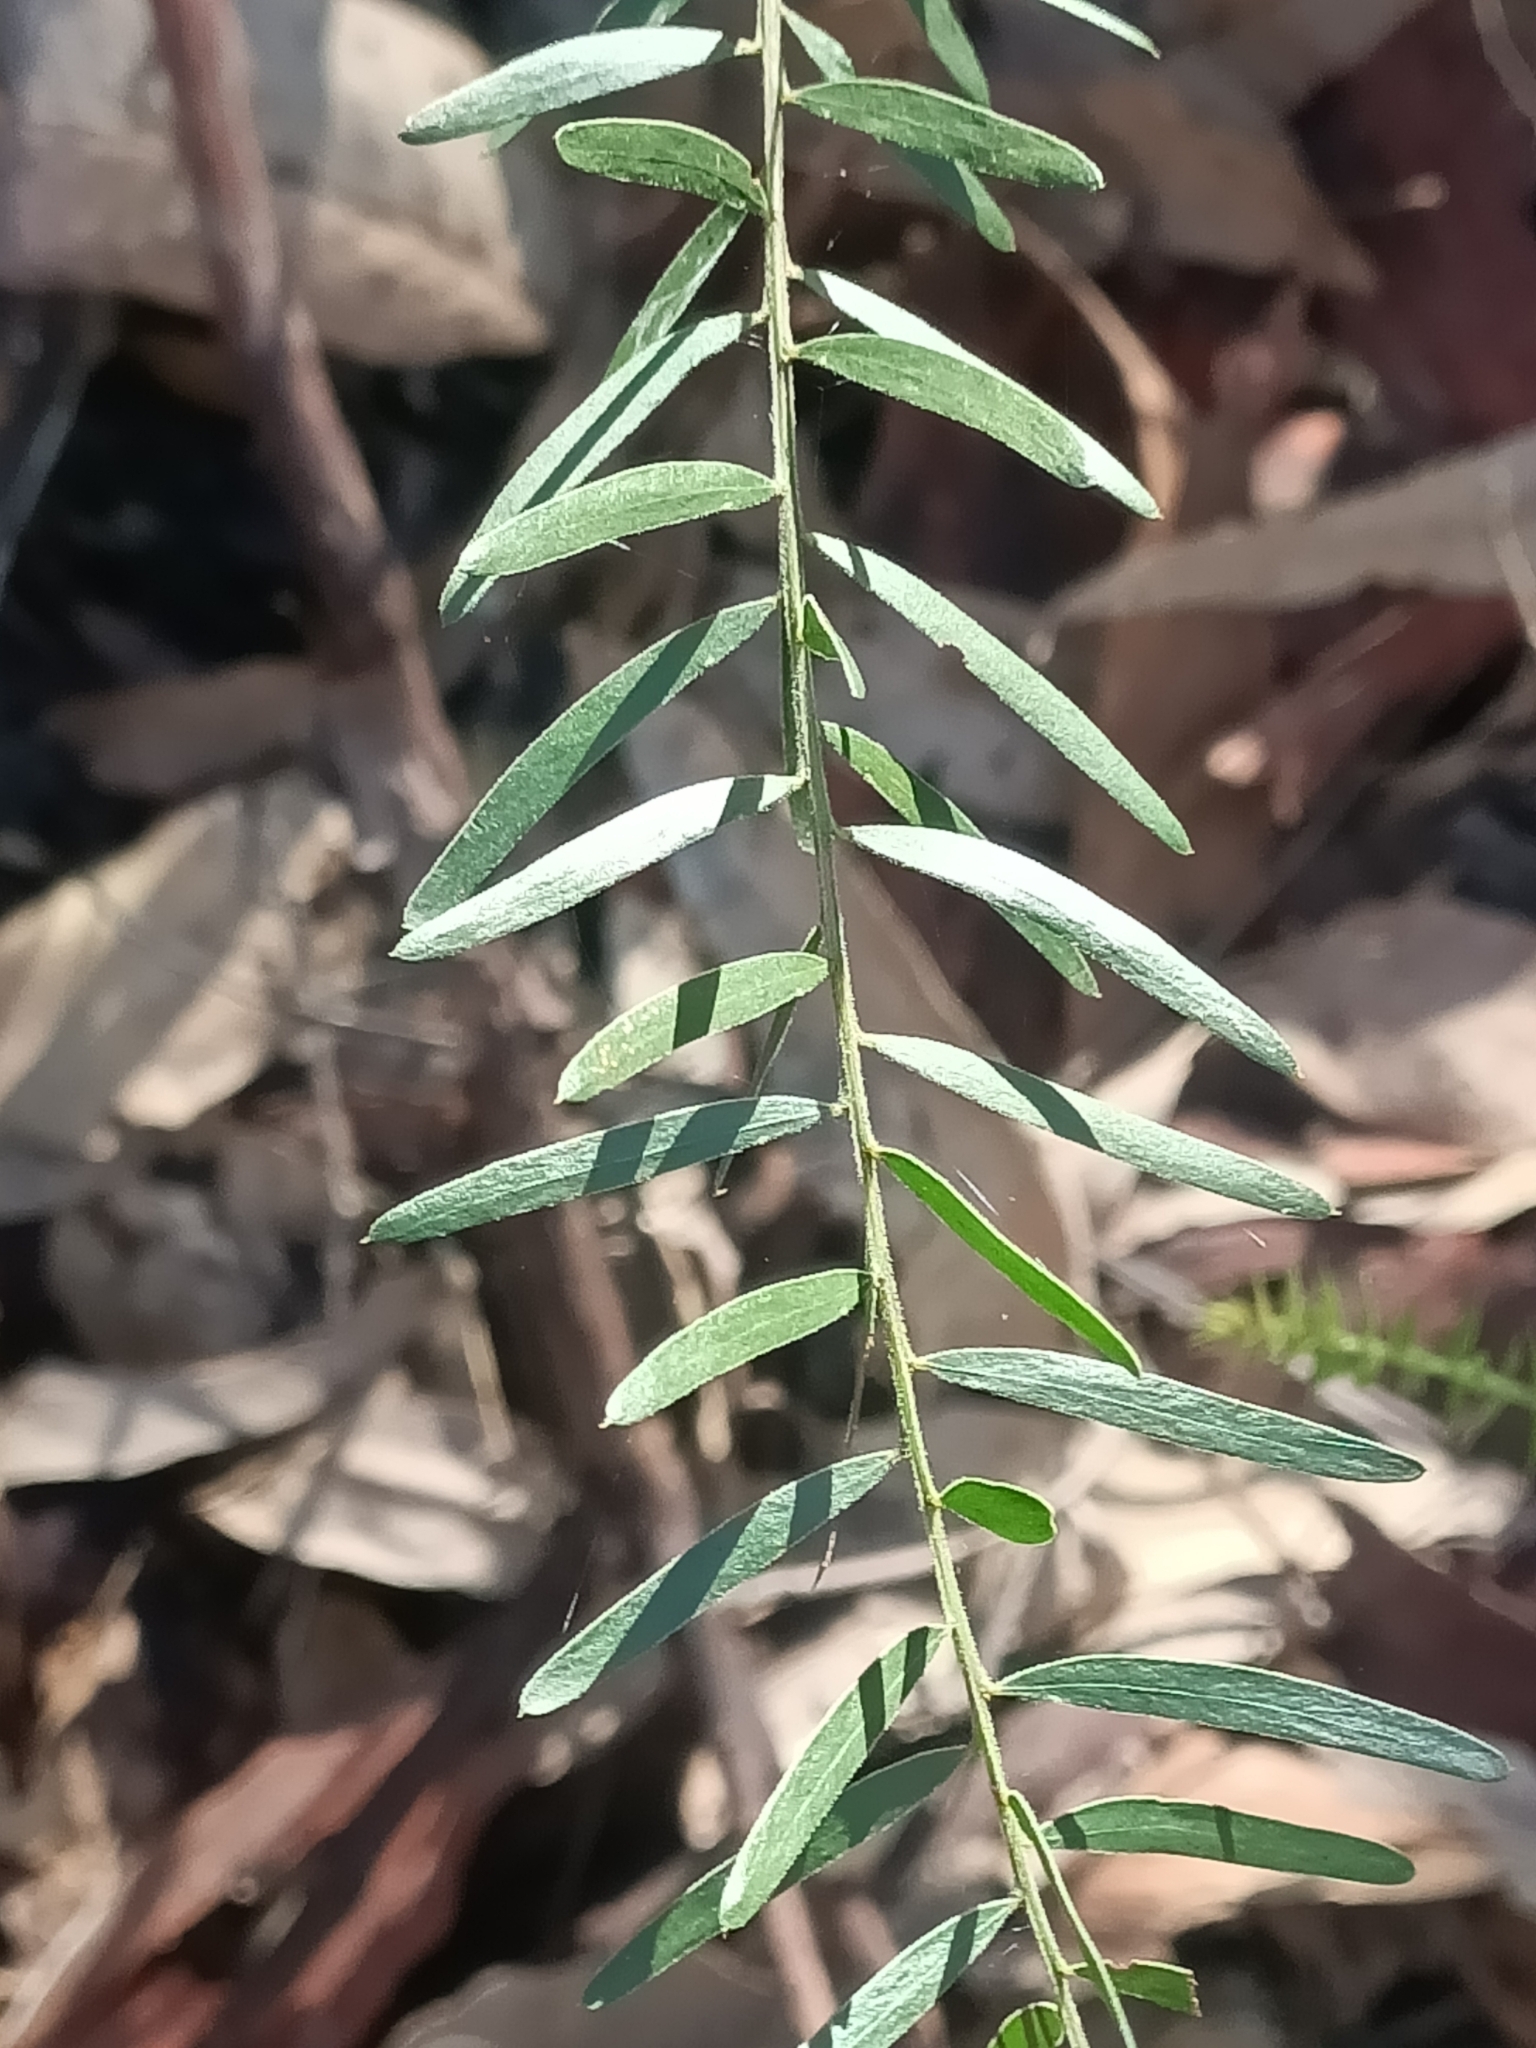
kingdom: Plantae
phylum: Tracheophyta
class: Magnoliopsida
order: Fabales
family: Fabaceae
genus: Acacia
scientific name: Acacia fimbriata
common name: Brisbane golden wattle
